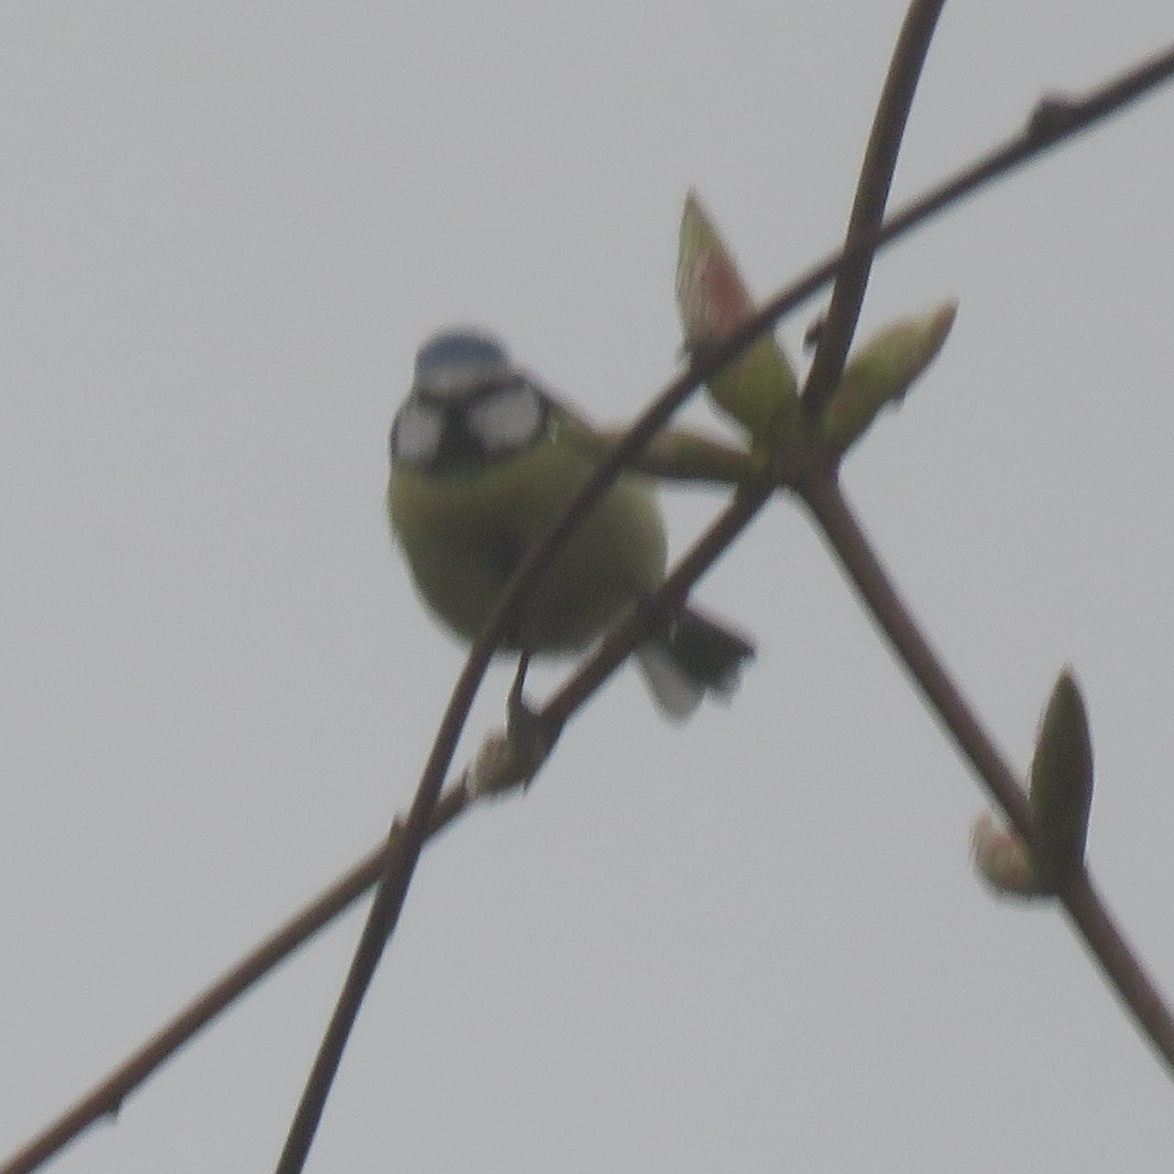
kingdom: Animalia
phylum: Chordata
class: Aves
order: Passeriformes
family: Paridae
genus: Cyanistes
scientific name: Cyanistes caeruleus
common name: Eurasian blue tit
